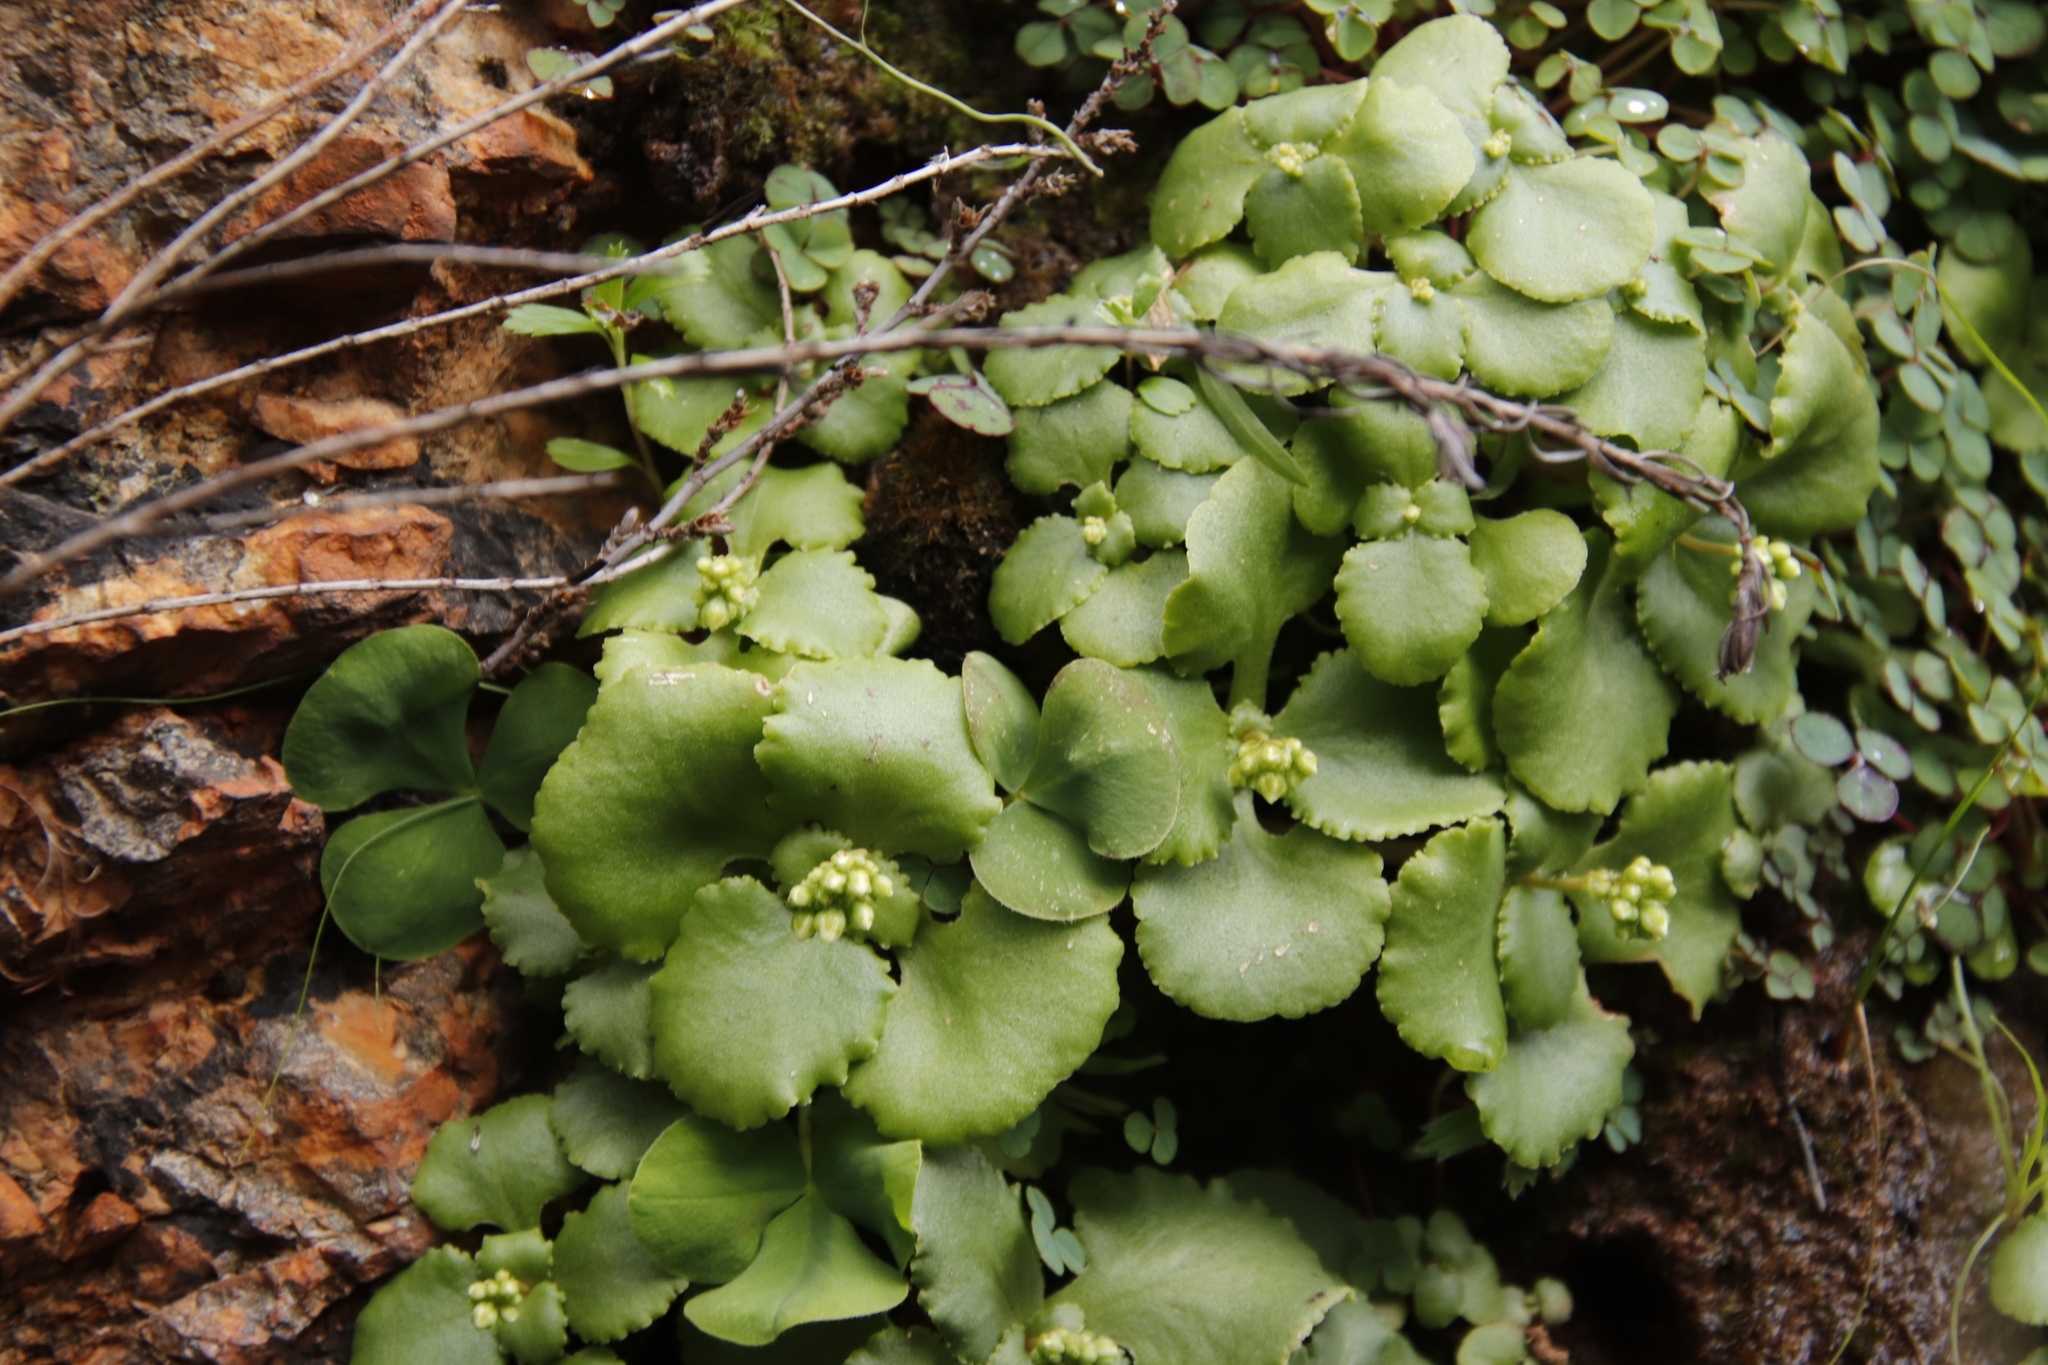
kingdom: Plantae
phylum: Tracheophyta
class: Magnoliopsida
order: Saxifragales
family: Crassulaceae
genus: Crassula
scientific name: Crassula capensis
